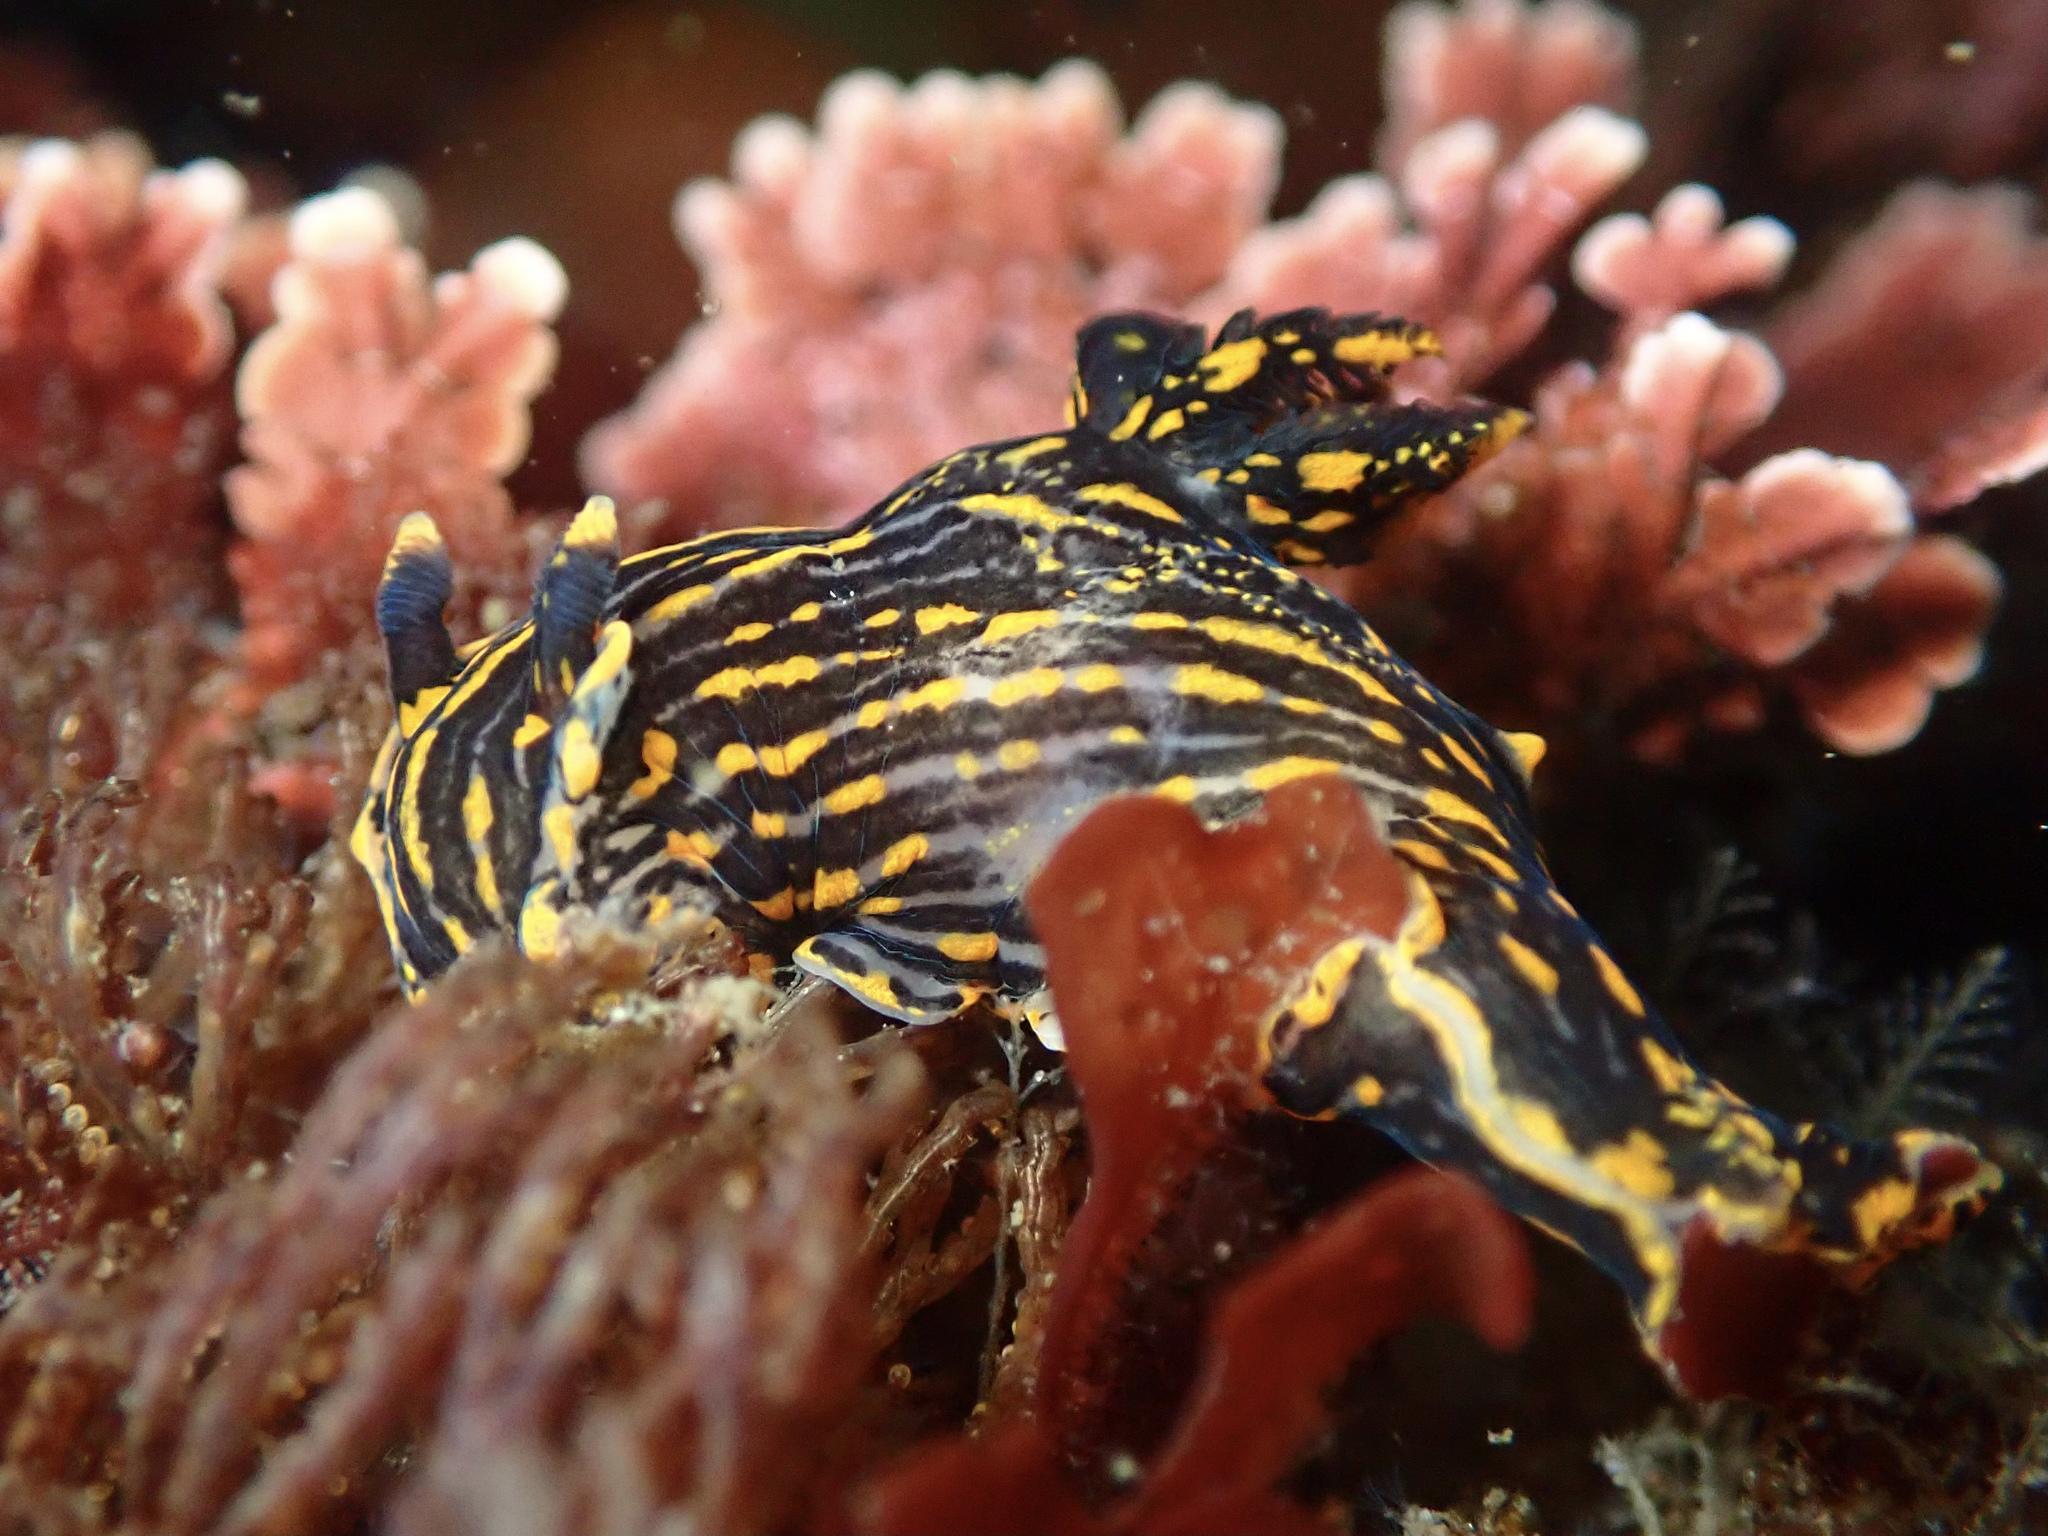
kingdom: Animalia
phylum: Mollusca
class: Gastropoda
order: Nudibranchia
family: Polyceridae
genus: Polycera
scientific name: Polycera atra
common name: Orange-spike polycera
